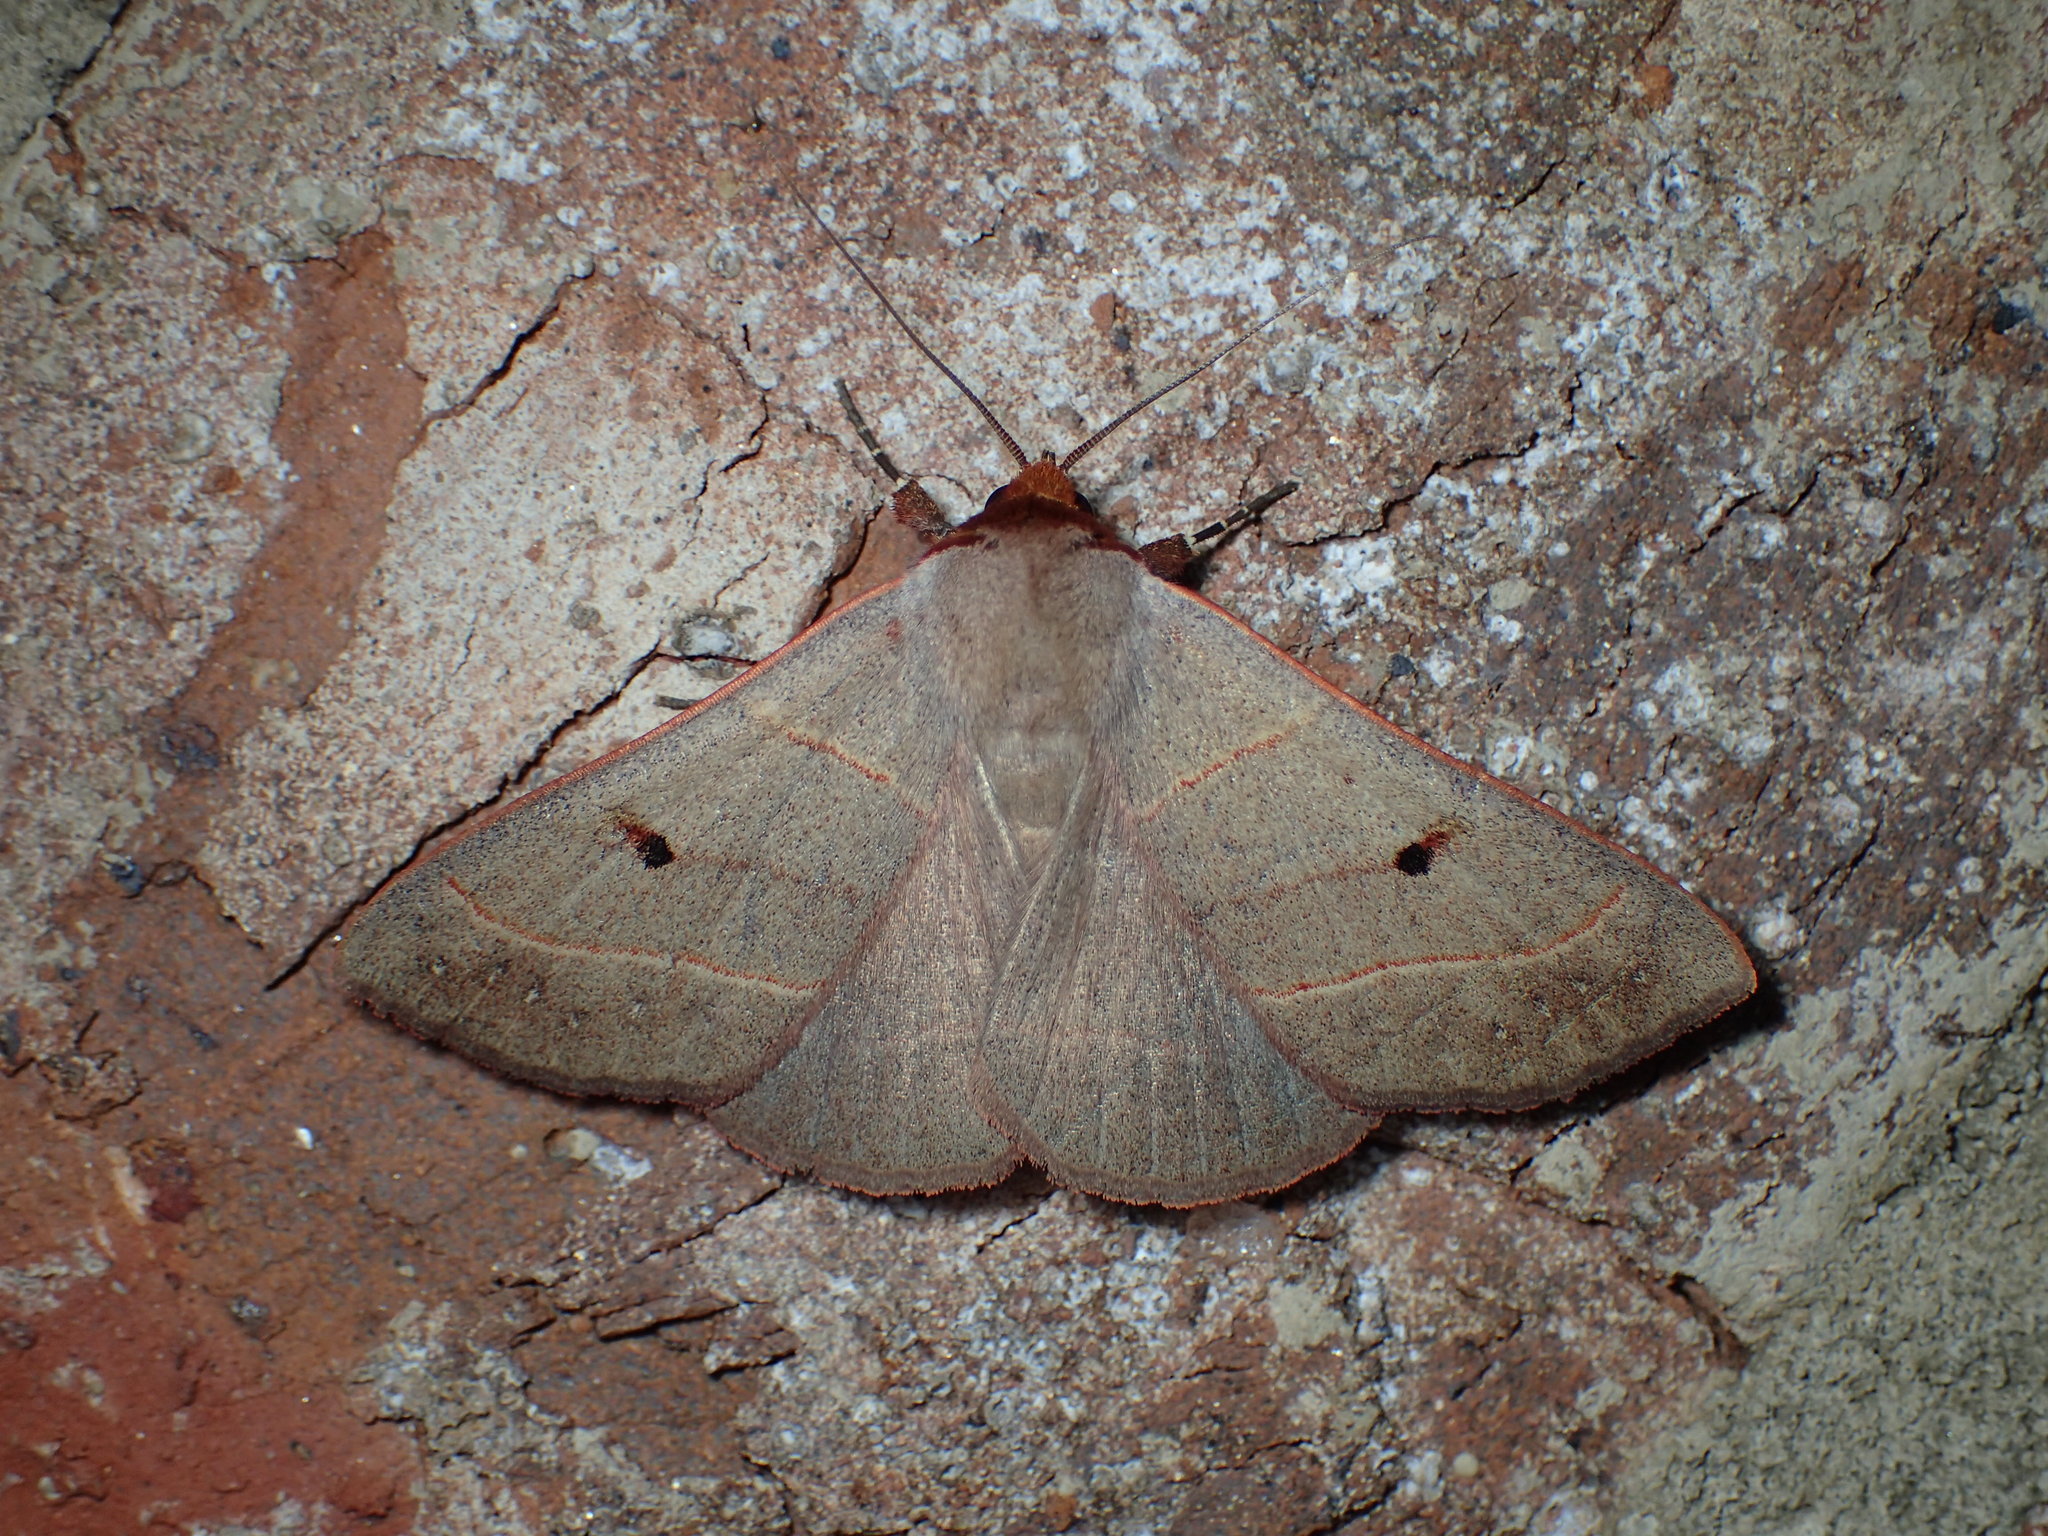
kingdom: Animalia
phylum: Arthropoda
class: Insecta
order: Lepidoptera
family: Erebidae
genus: Panopoda
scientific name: Panopoda rufimargo
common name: Red-lined panopoda moth
